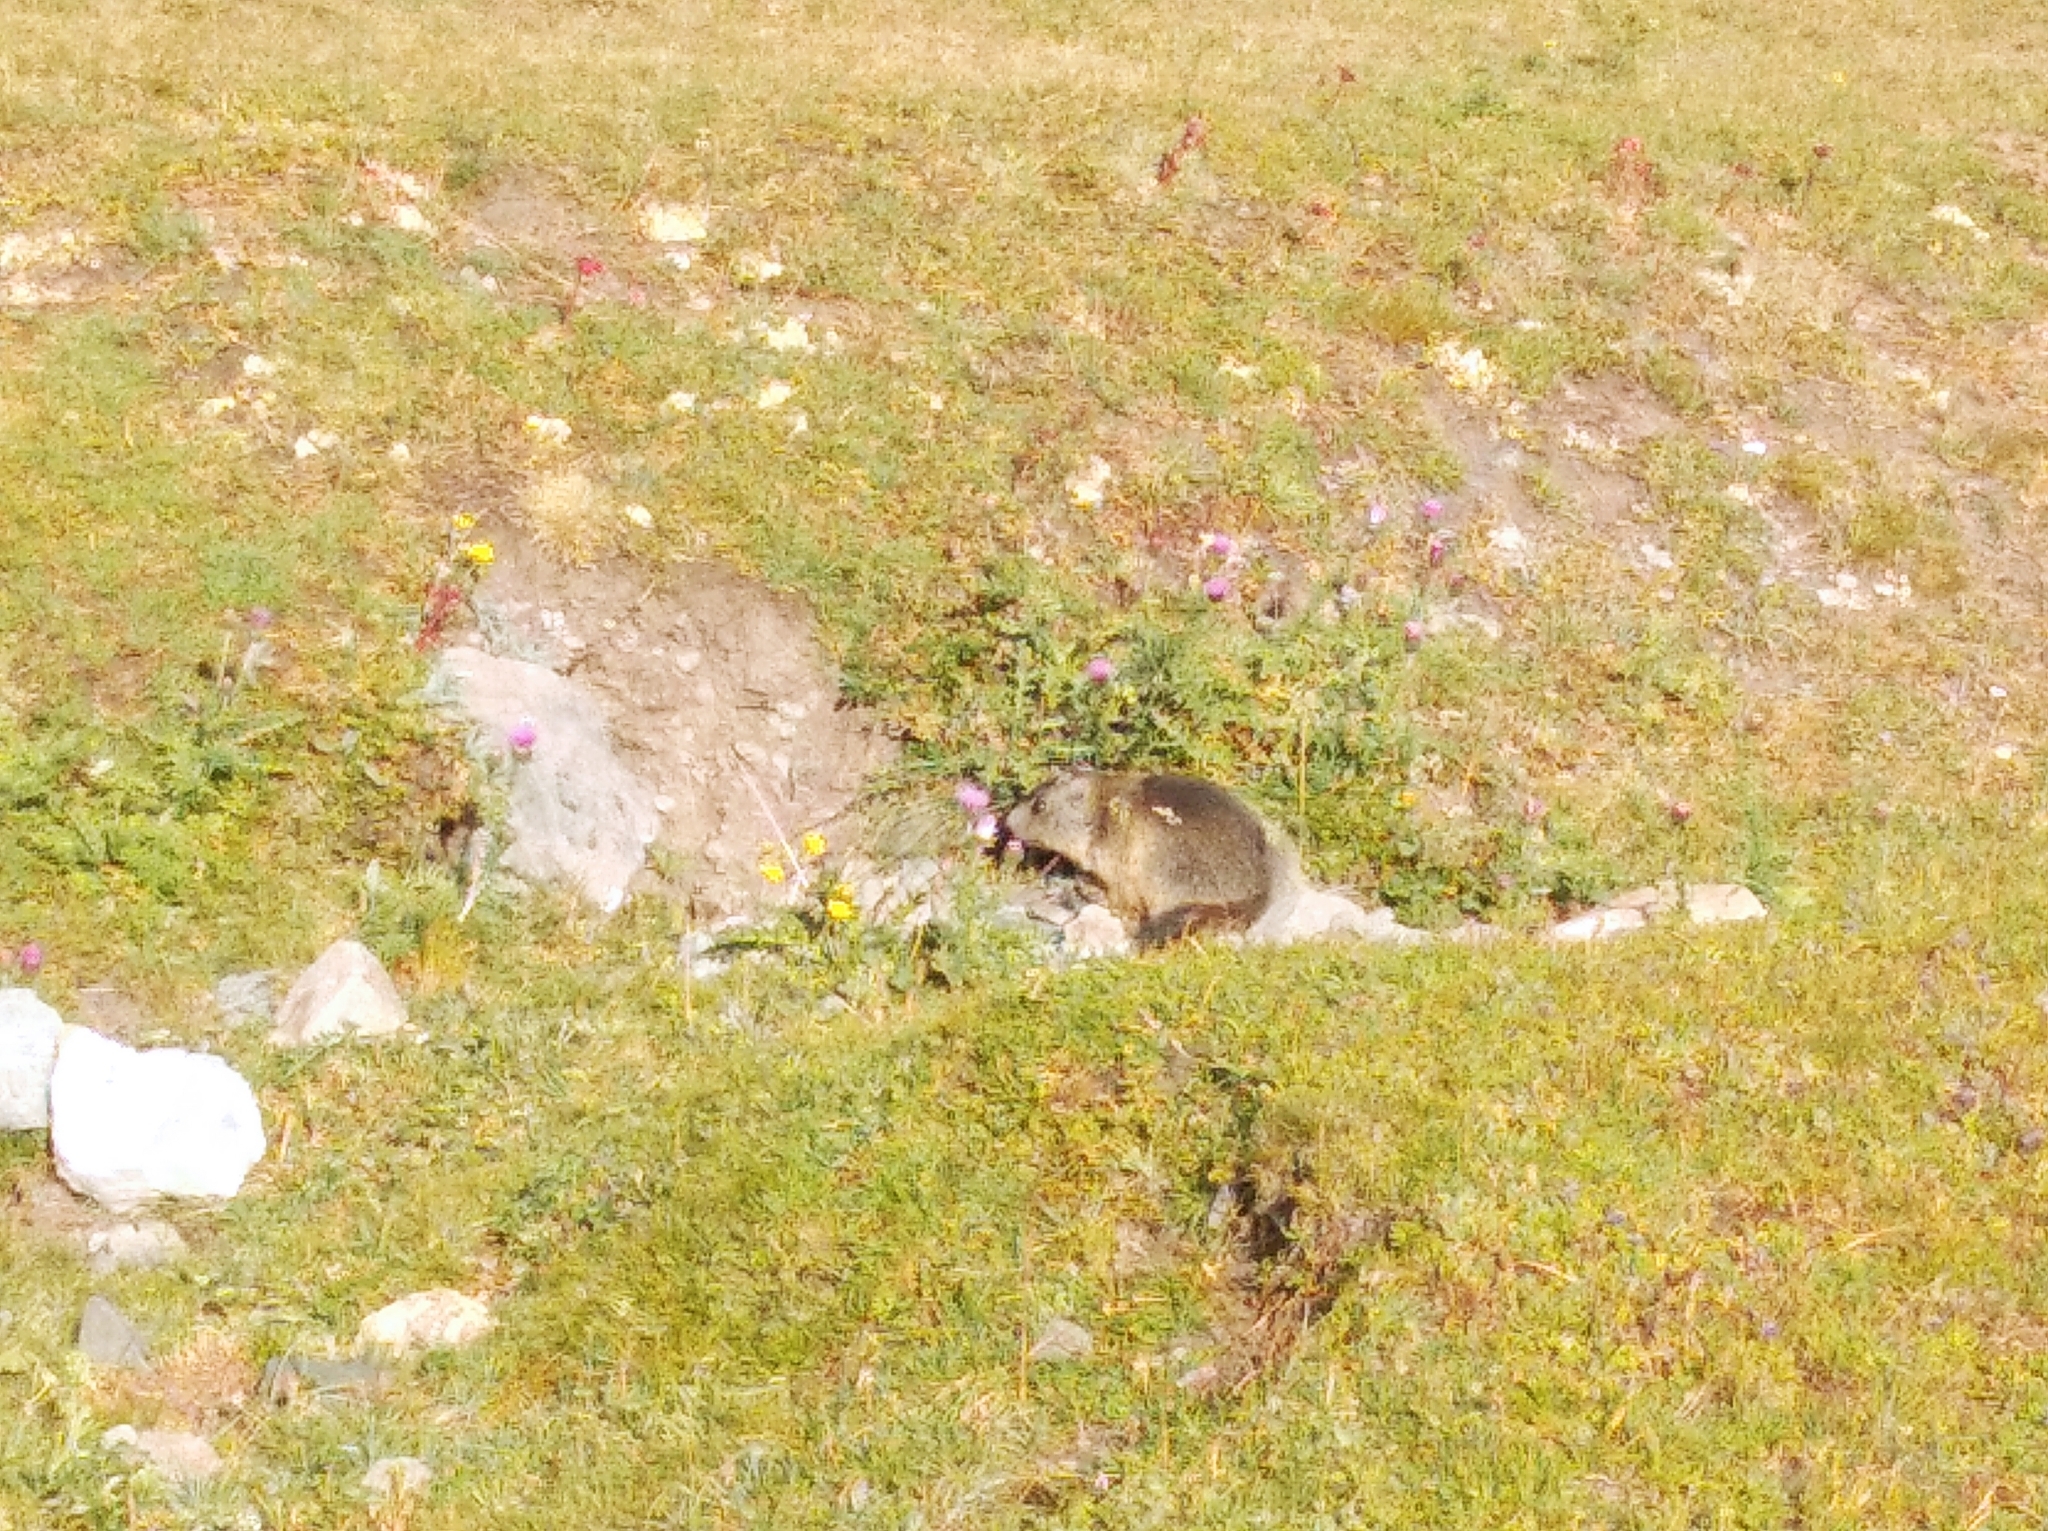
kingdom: Animalia
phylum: Chordata
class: Mammalia
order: Rodentia
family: Sciuridae
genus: Marmota
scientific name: Marmota marmota
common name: Alpine marmot
